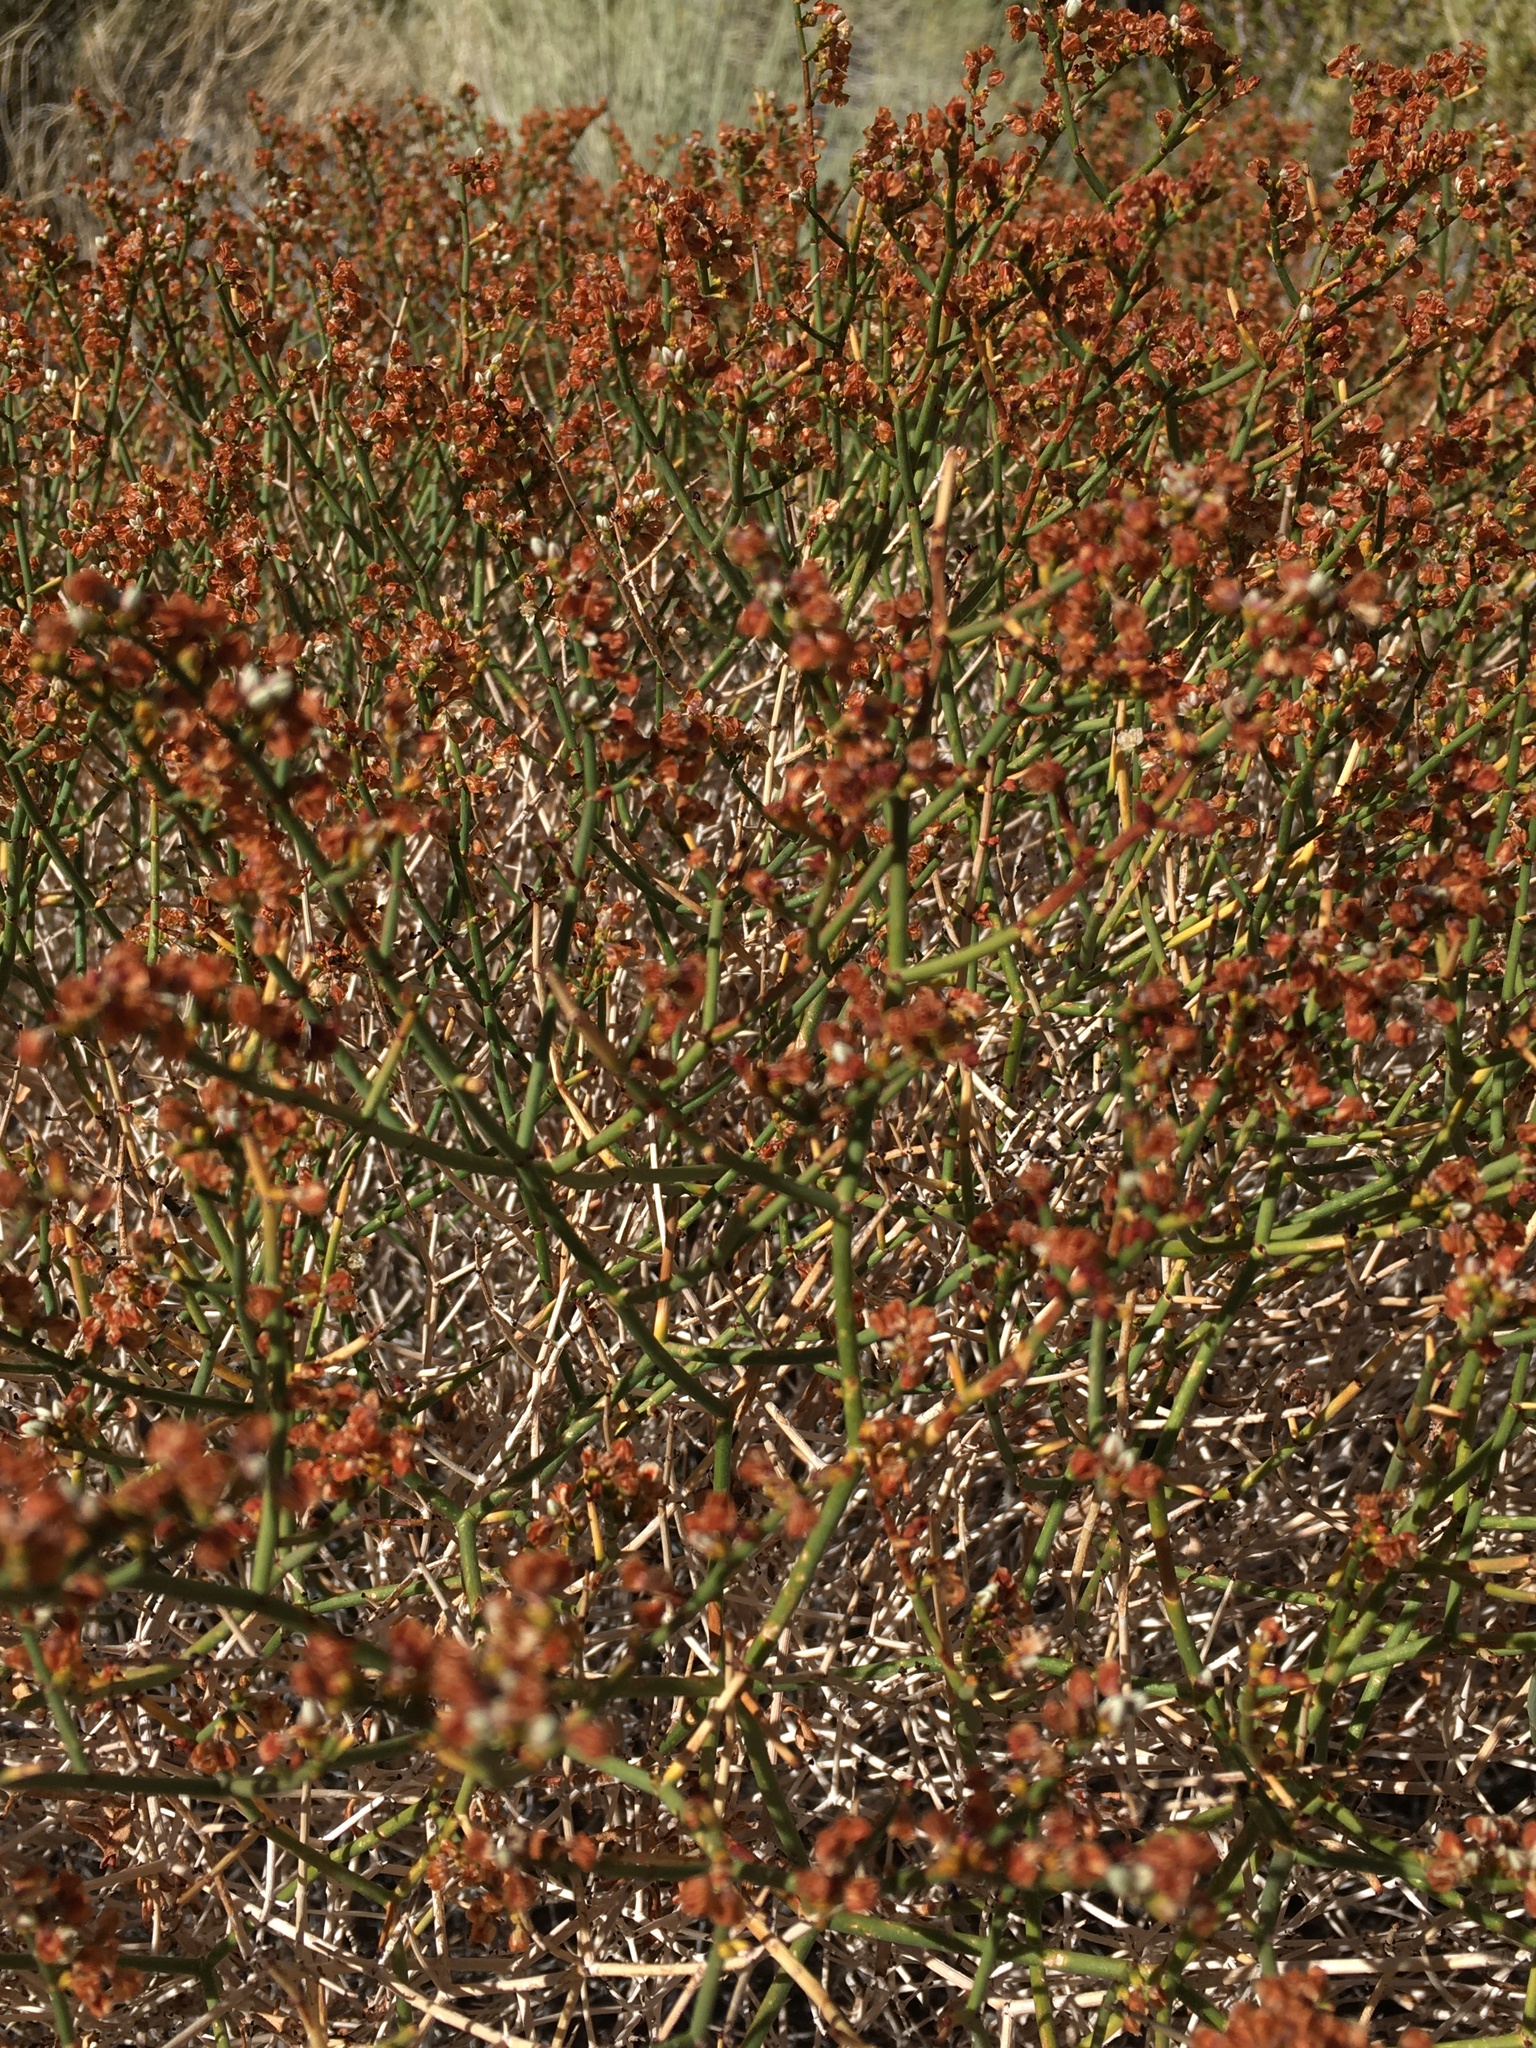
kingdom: Plantae
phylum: Tracheophyta
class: Magnoliopsida
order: Caryophyllales
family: Polygonaceae
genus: Eriogonum
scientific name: Eriogonum heermannii
